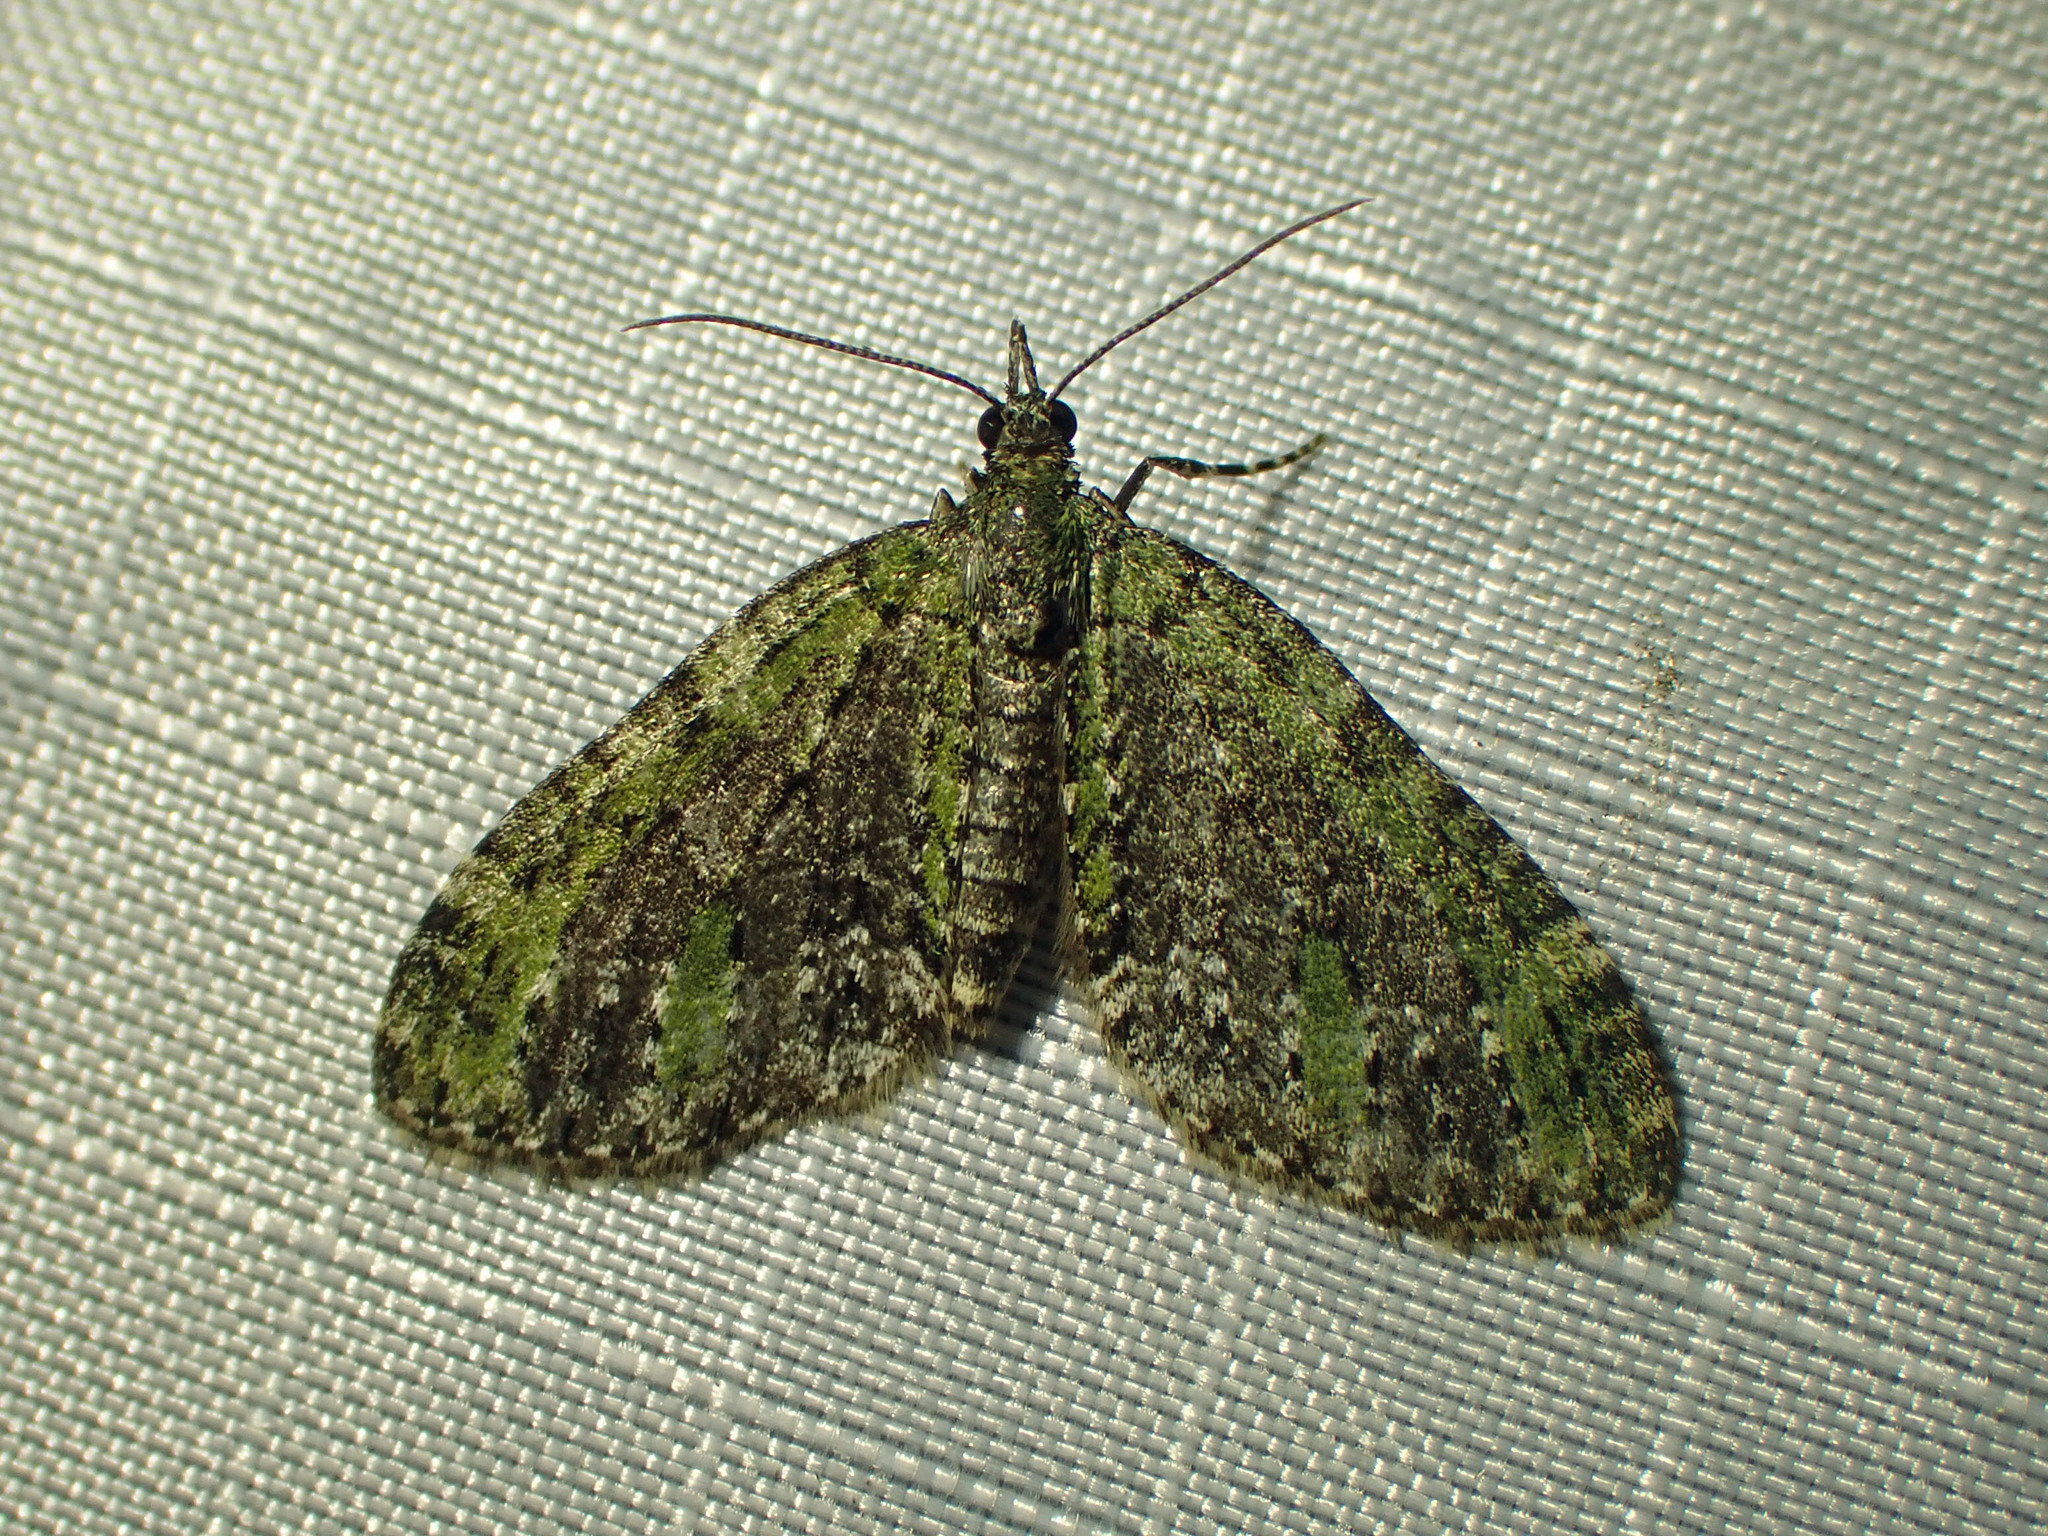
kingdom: Animalia
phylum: Arthropoda
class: Insecta
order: Lepidoptera
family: Geometridae
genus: Acasis
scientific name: Acasis viridata
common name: Olive-and-black carpet moth
